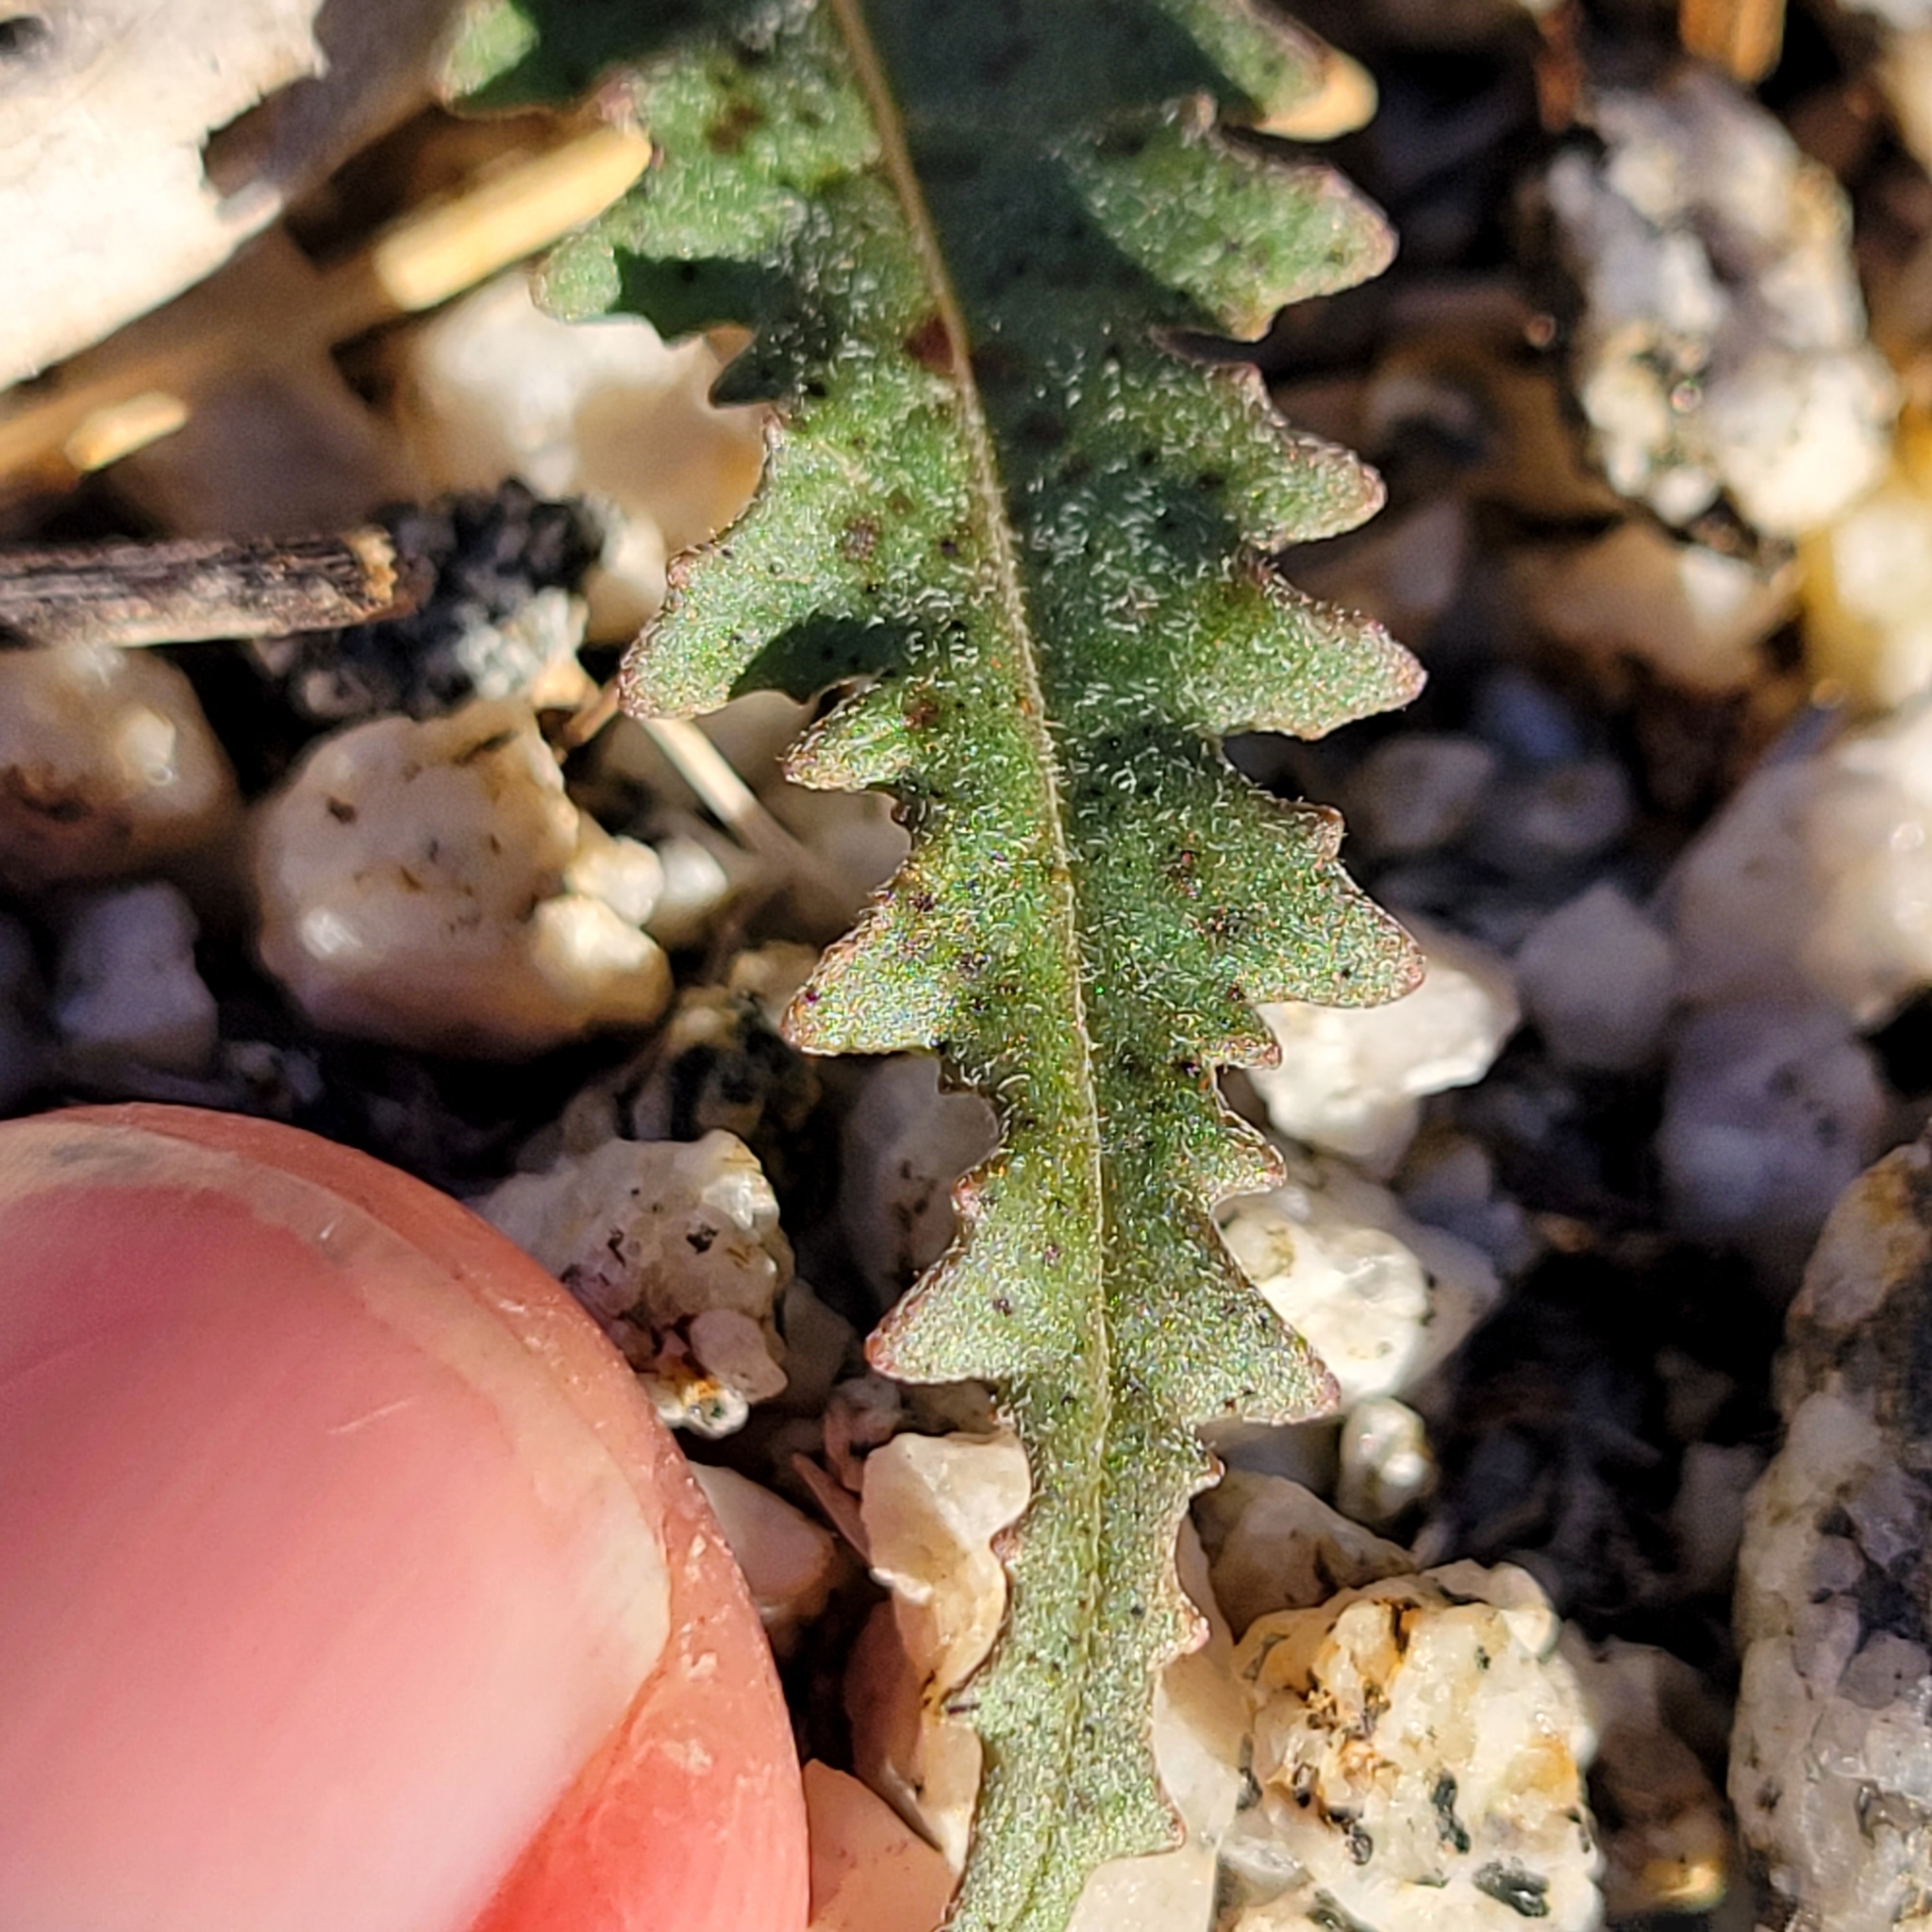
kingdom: Plantae
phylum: Tracheophyta
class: Magnoliopsida
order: Myrtales
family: Onagraceae
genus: Eulobus
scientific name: Eulobus californicus
